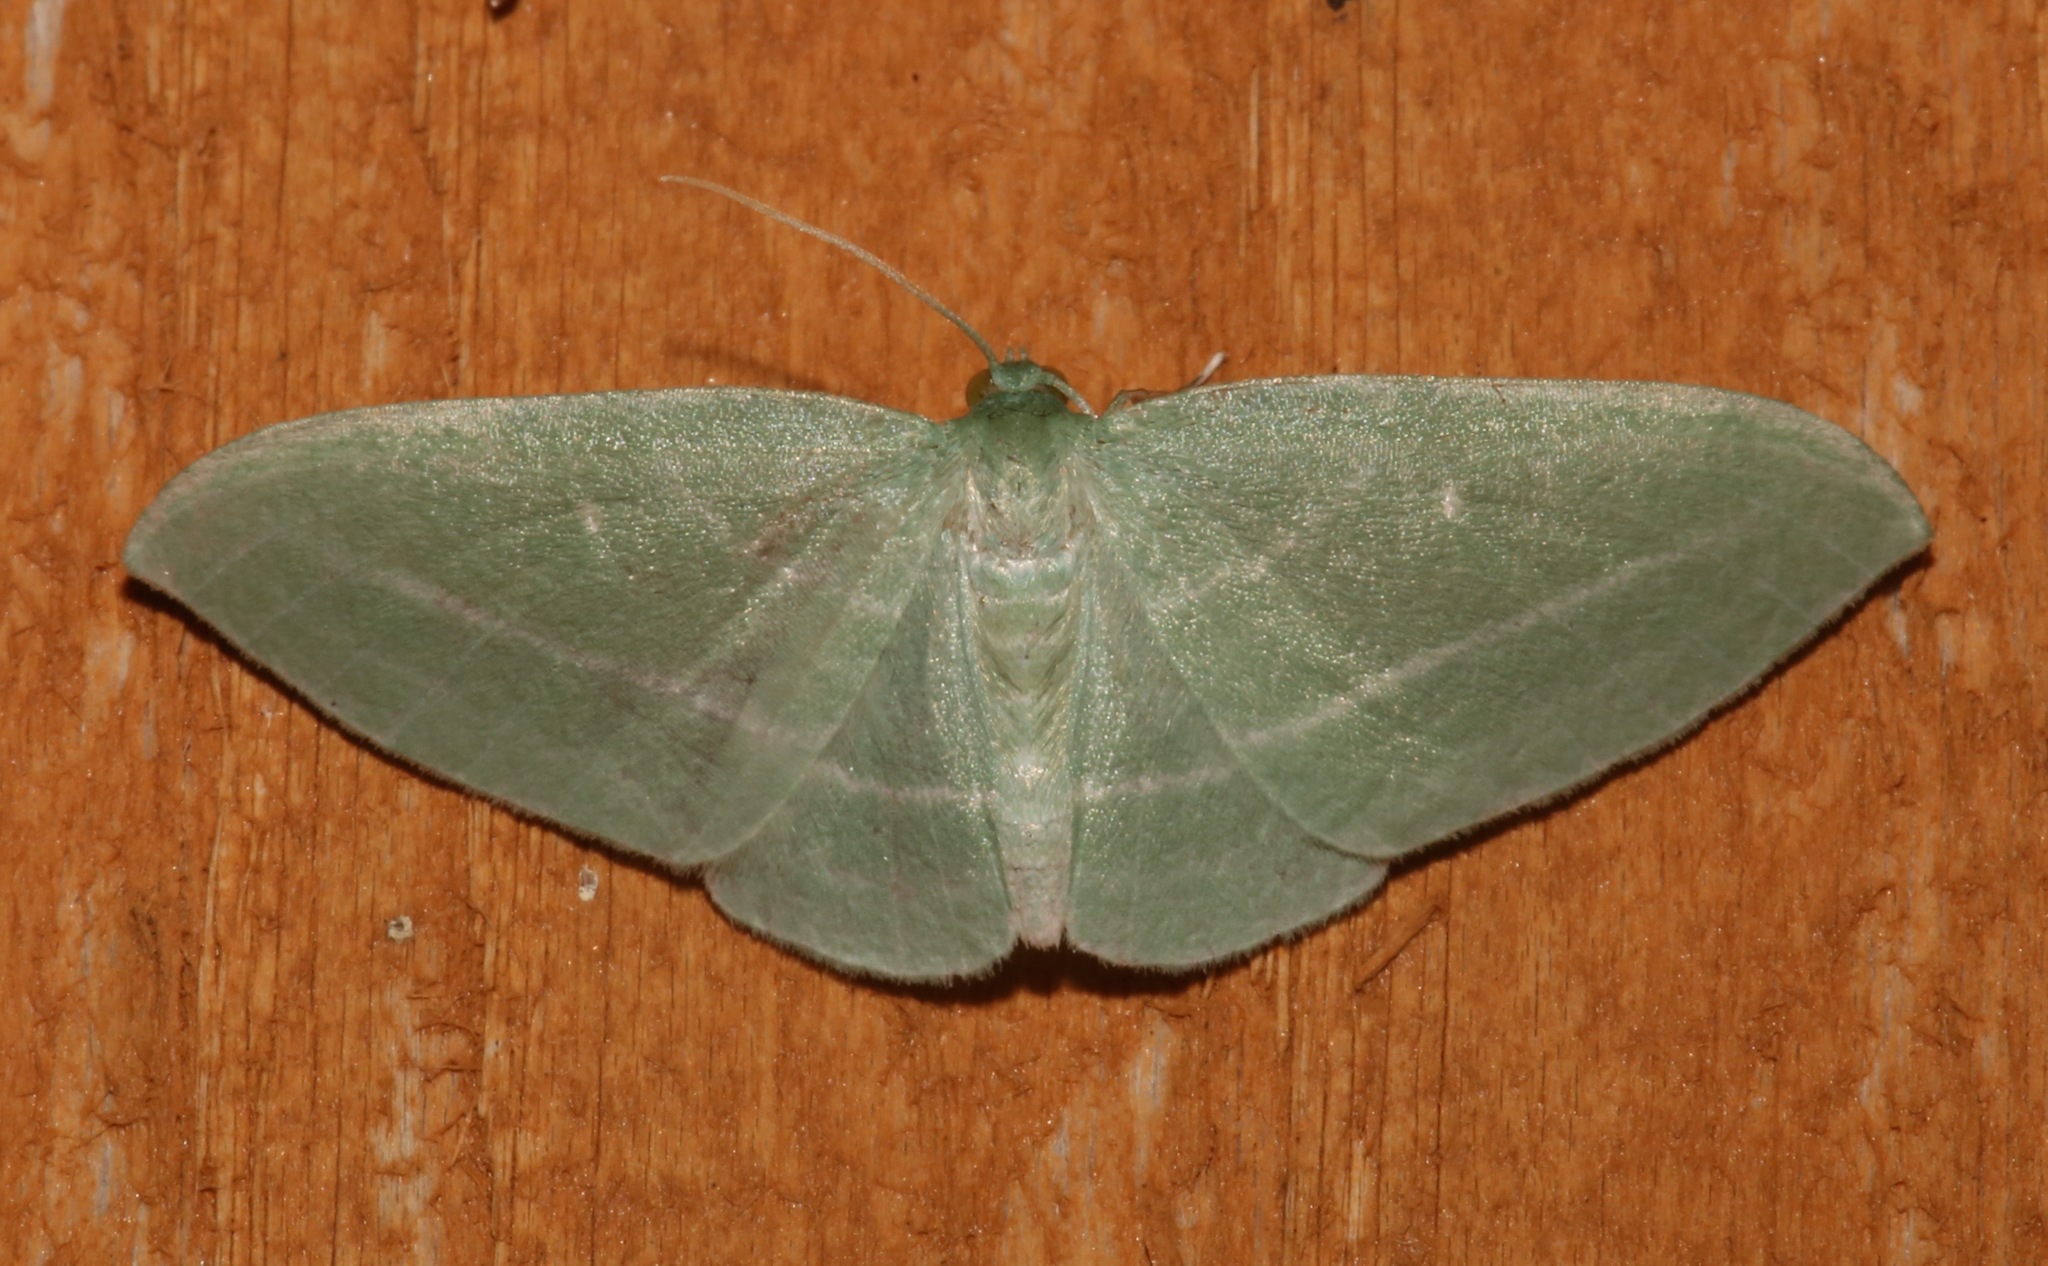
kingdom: Animalia
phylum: Arthropoda
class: Insecta
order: Lepidoptera
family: Geometridae
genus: Dyspteris
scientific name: Dyspteris abortivaria
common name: Bad-wing
